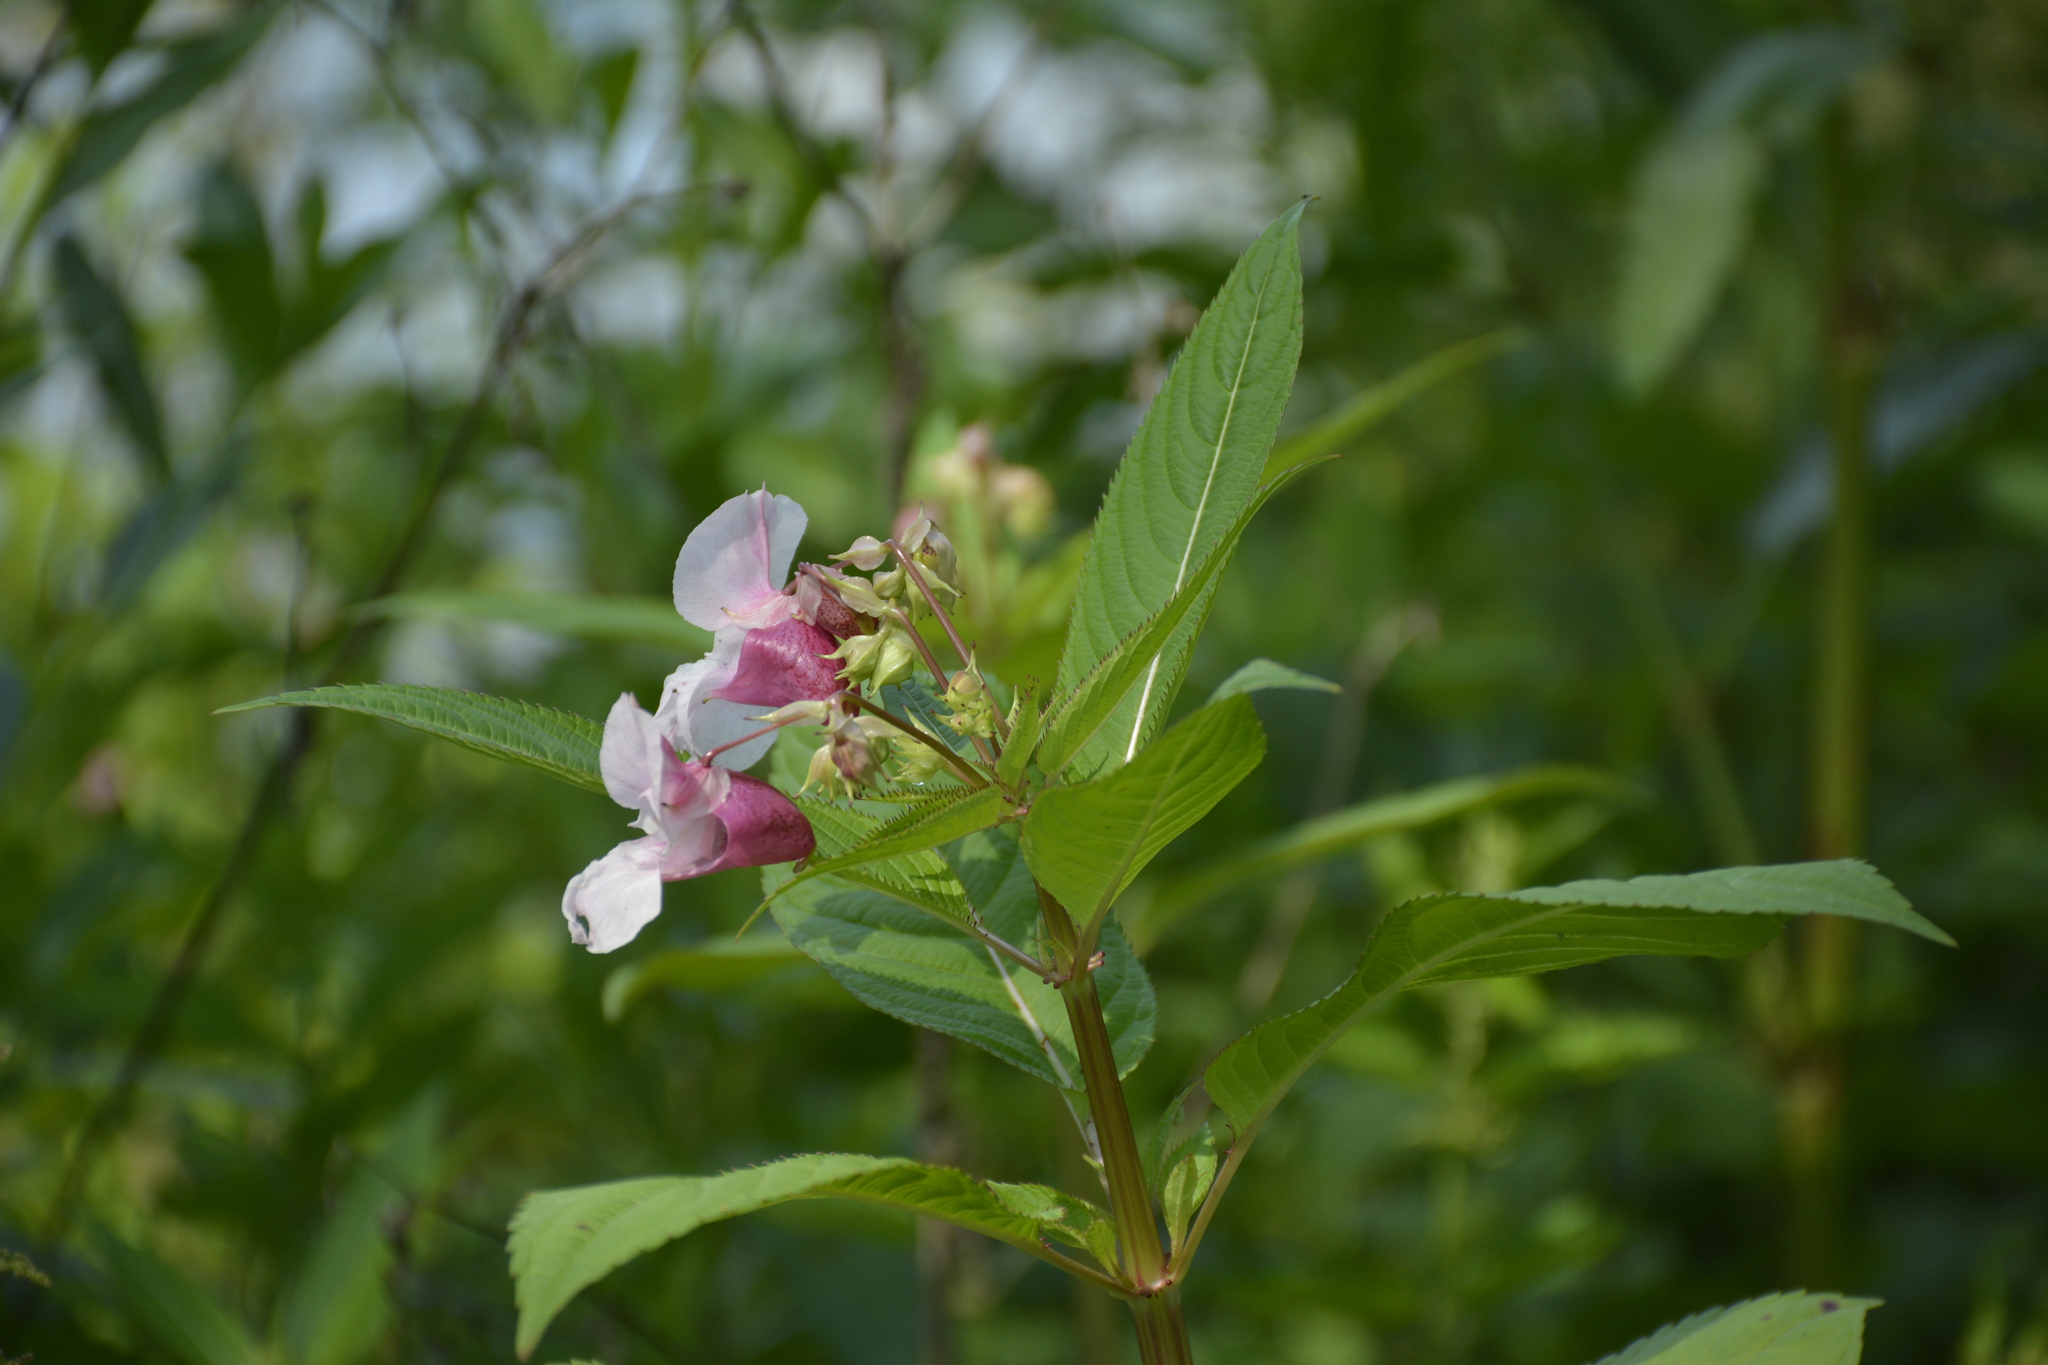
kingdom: Plantae
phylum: Tracheophyta
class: Magnoliopsida
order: Ericales
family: Balsaminaceae
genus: Impatiens
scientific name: Impatiens glandulifera
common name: Himalayan balsam
